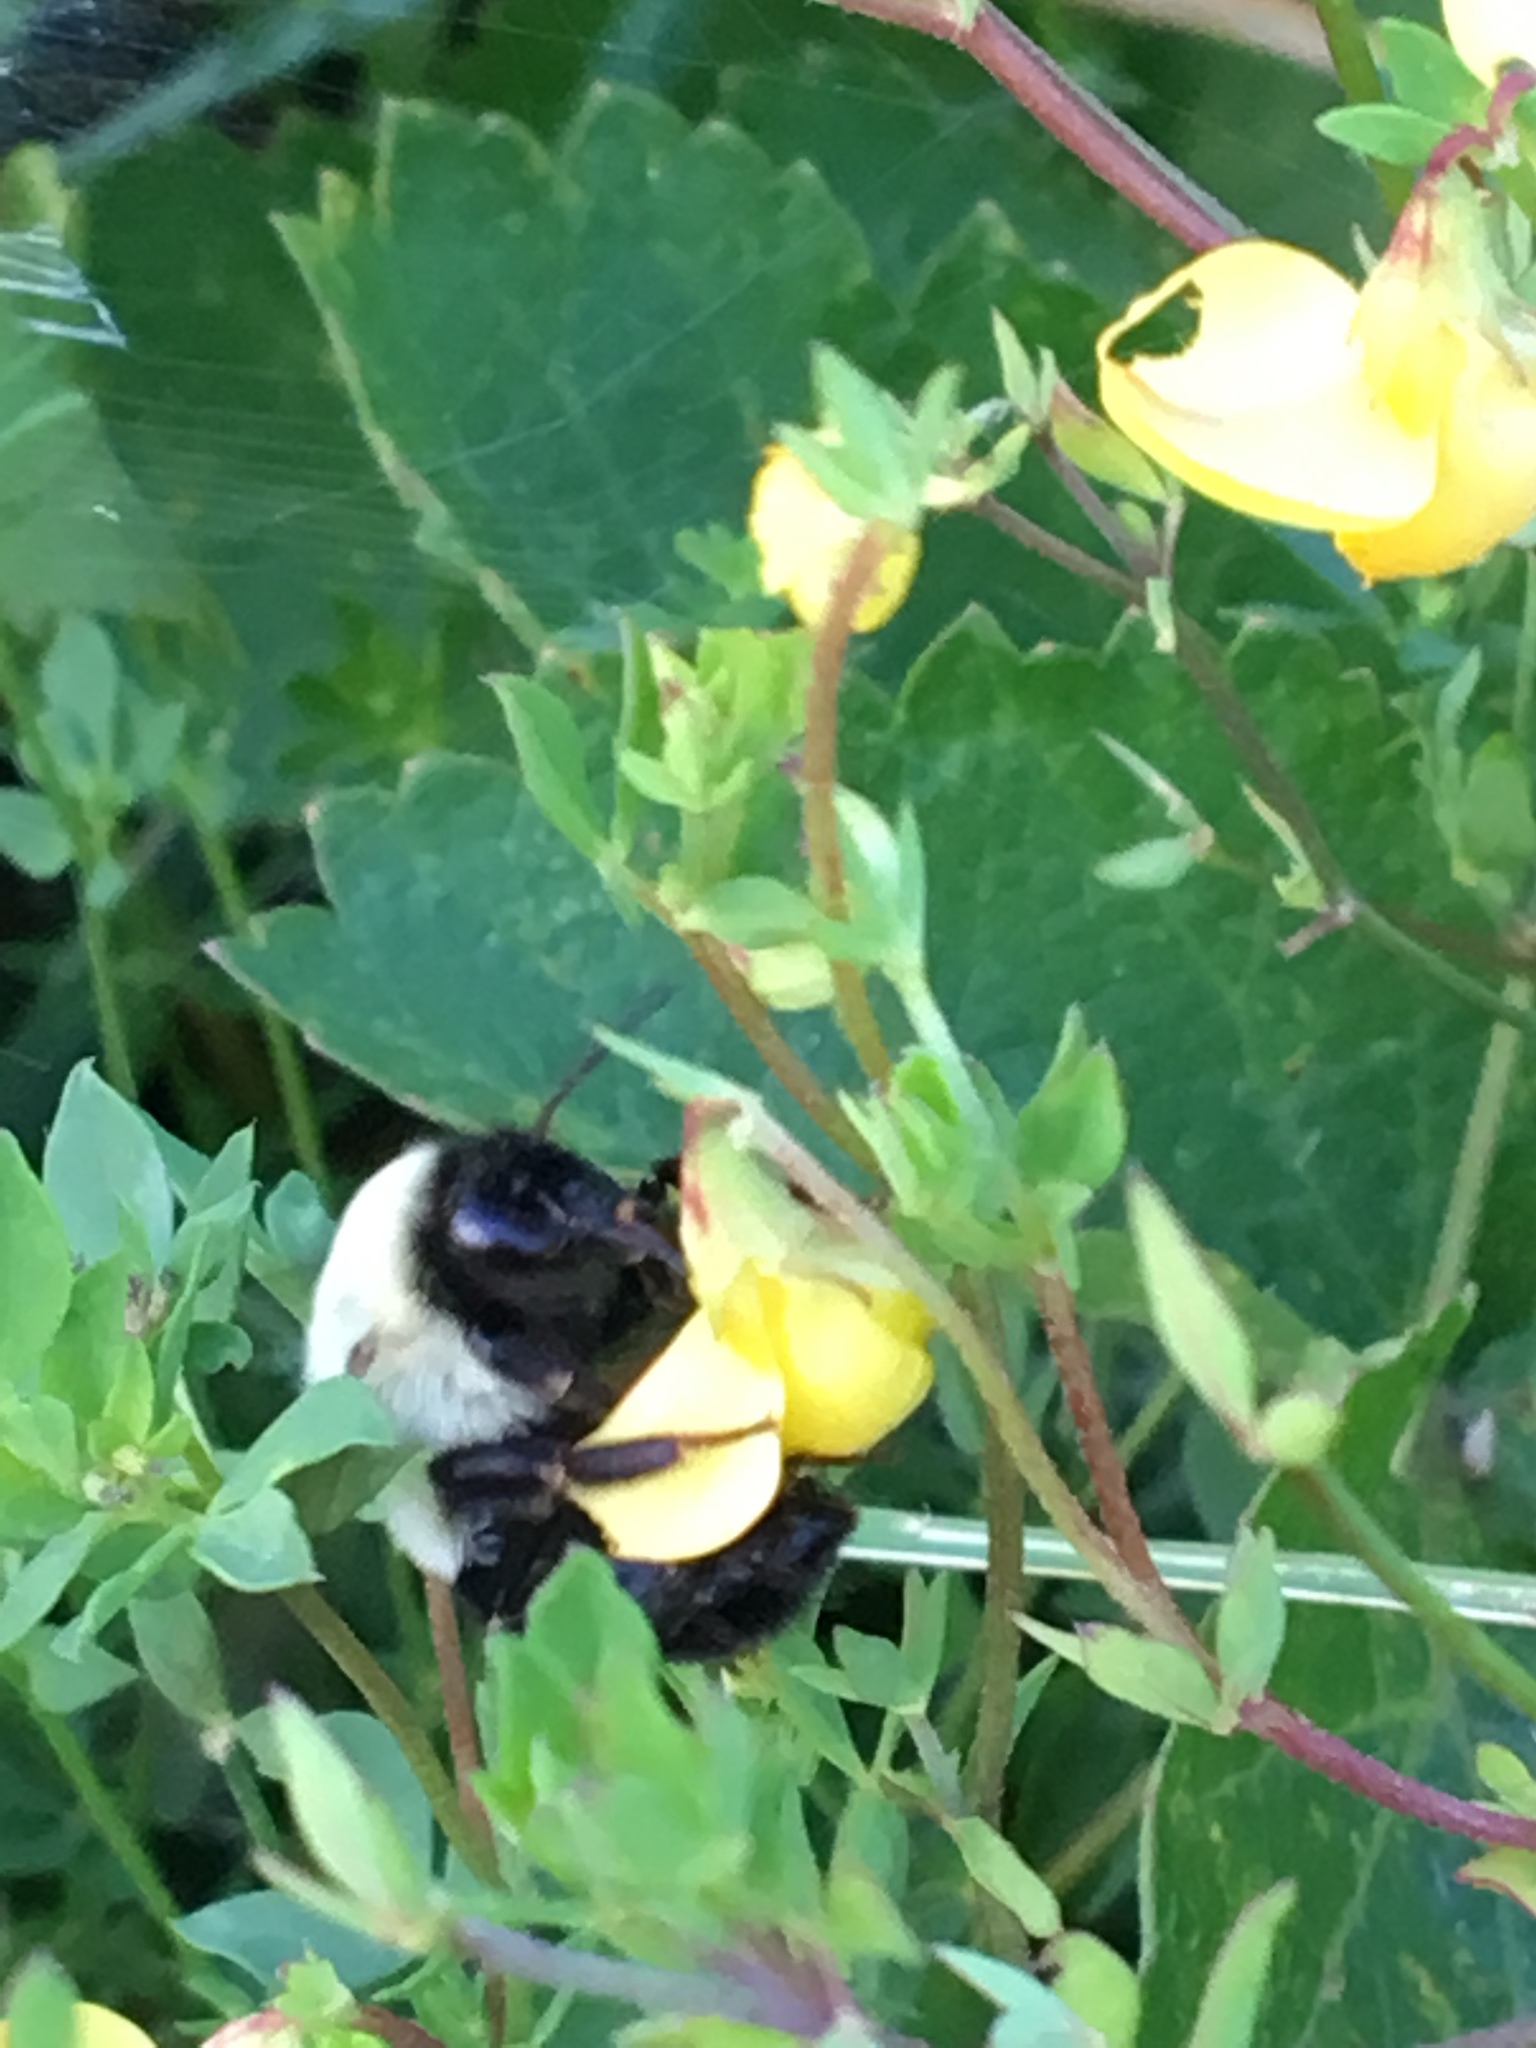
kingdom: Animalia
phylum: Arthropoda
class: Insecta
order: Hymenoptera
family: Apidae
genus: Bombus
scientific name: Bombus impatiens
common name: Common eastern bumble bee
